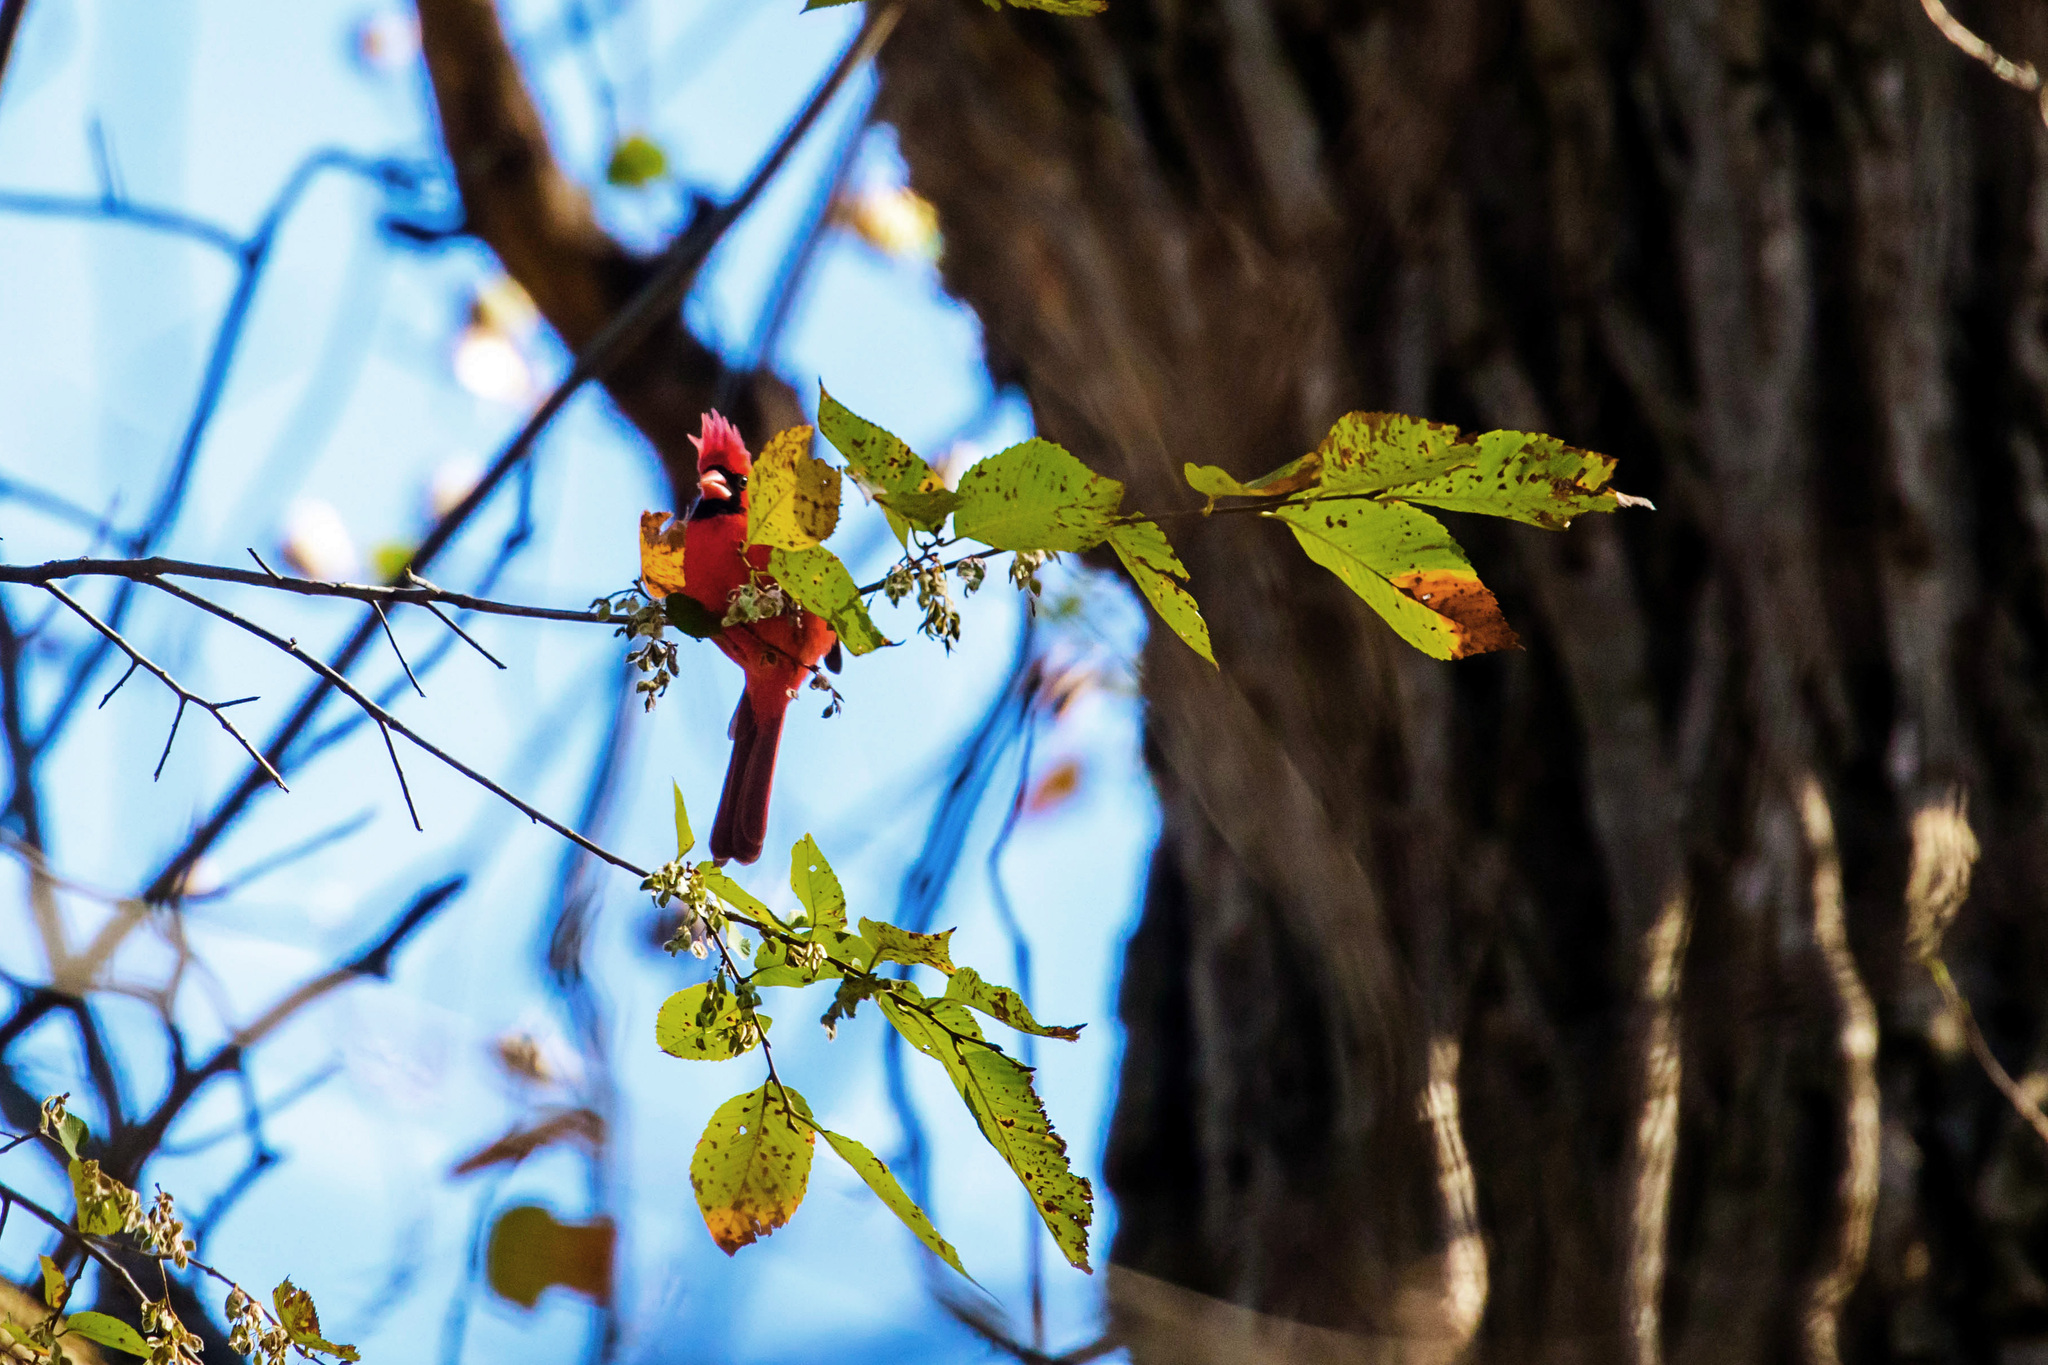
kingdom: Animalia
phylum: Chordata
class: Aves
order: Passeriformes
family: Cardinalidae
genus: Cardinalis
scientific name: Cardinalis cardinalis
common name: Northern cardinal
